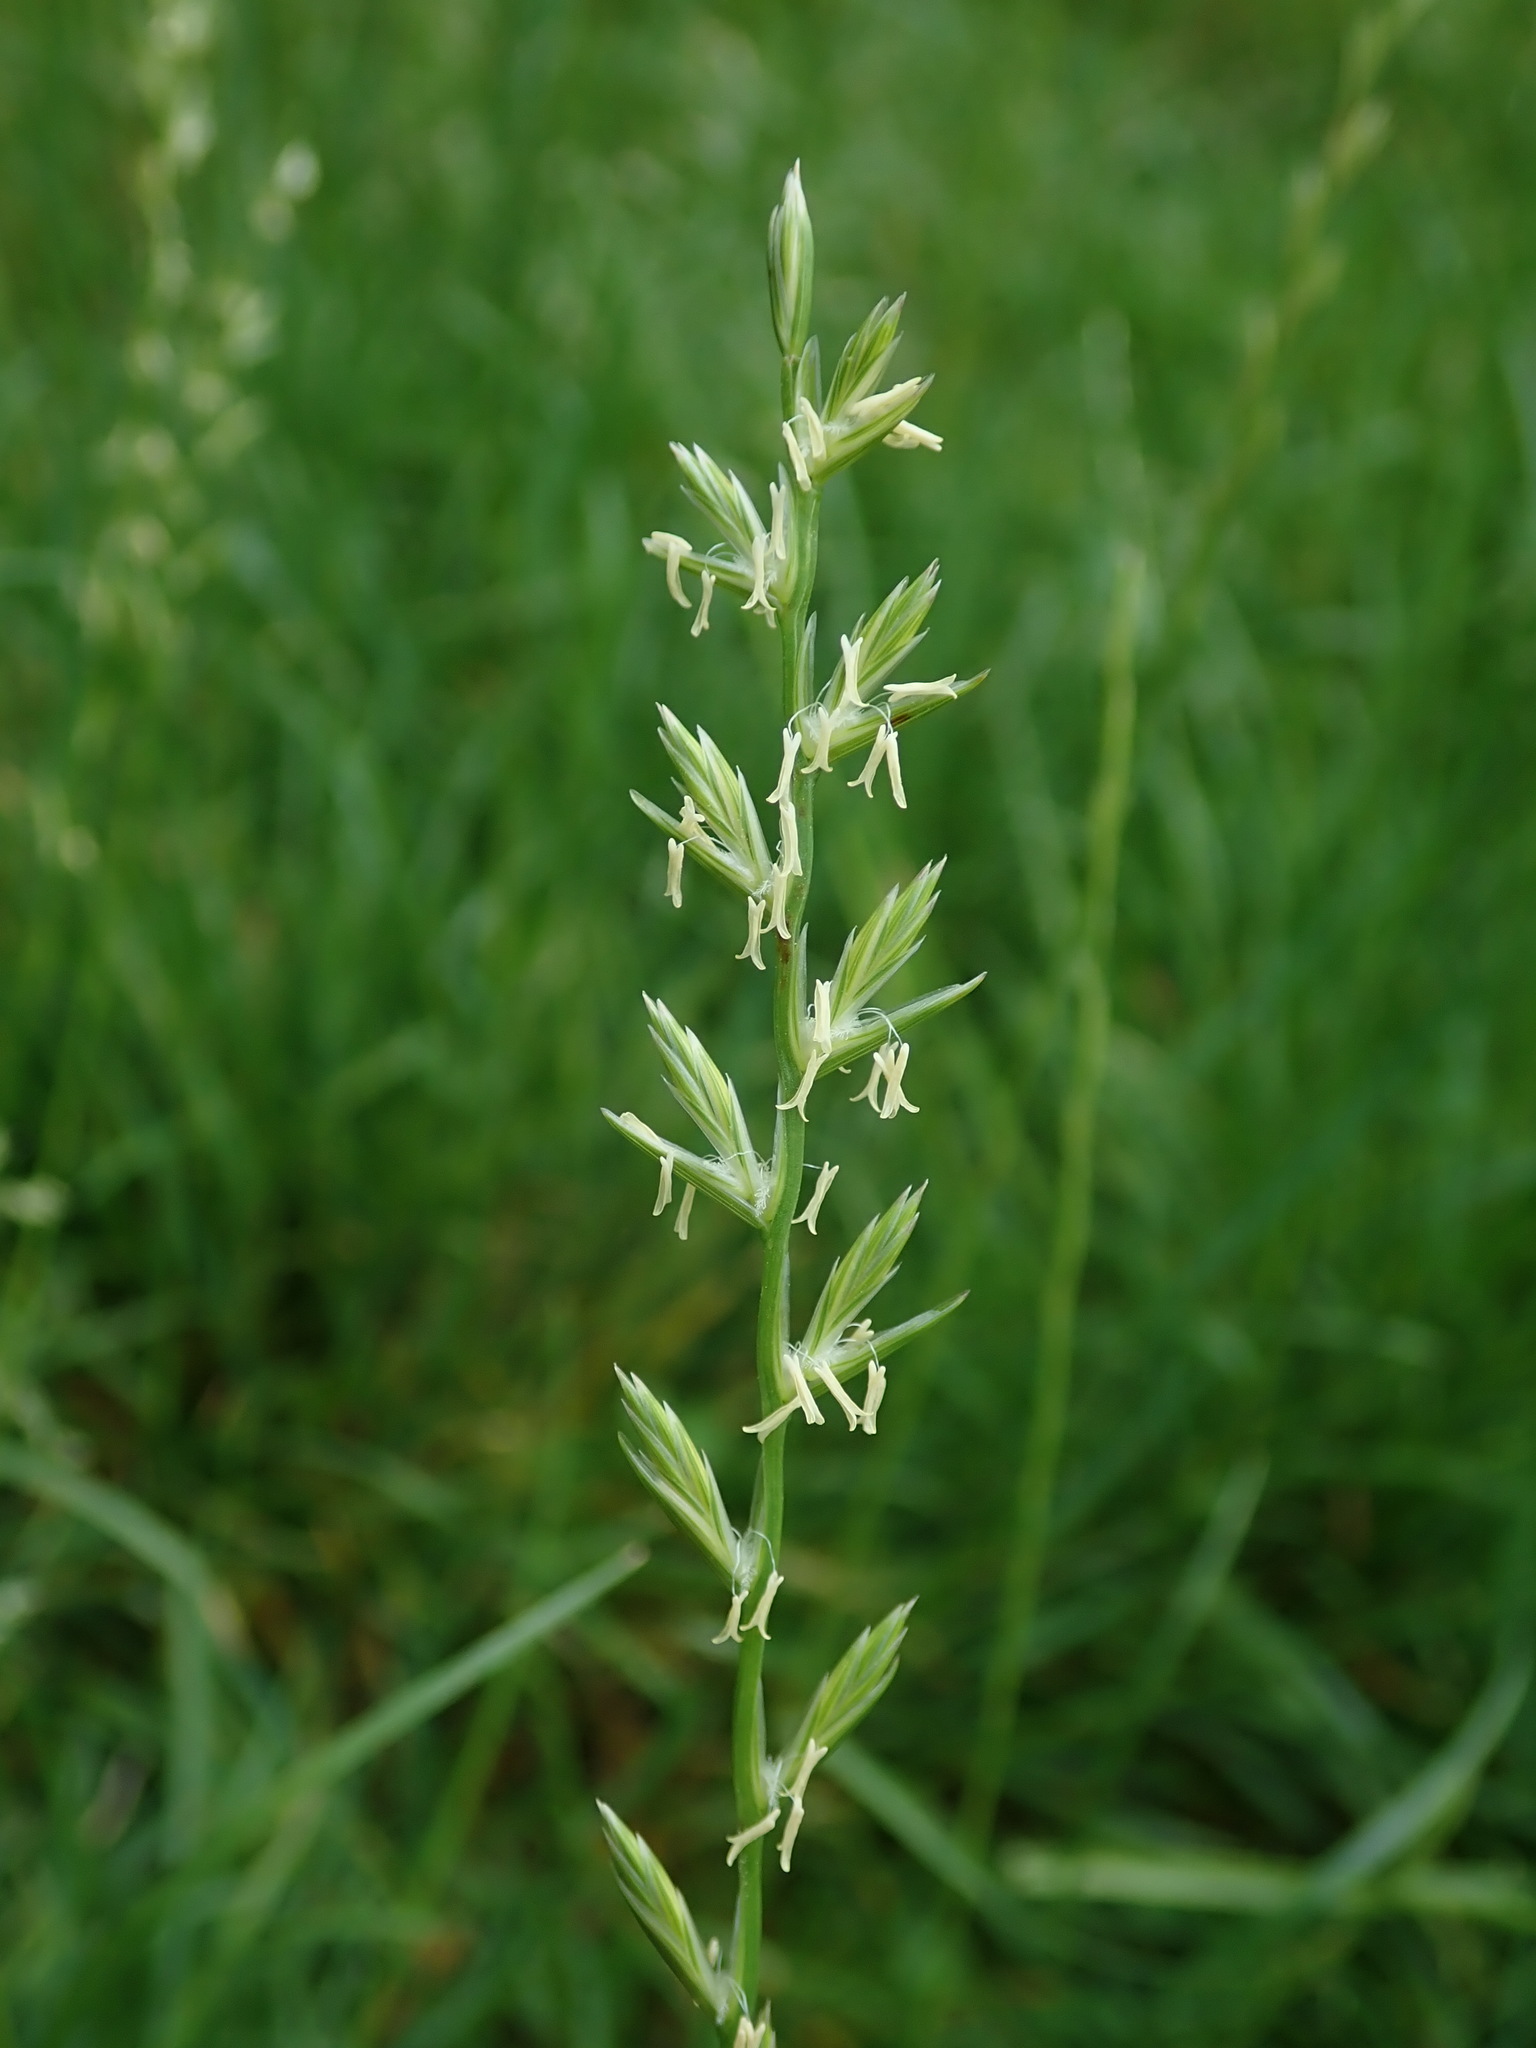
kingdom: Plantae
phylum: Tracheophyta
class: Liliopsida
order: Poales
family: Poaceae
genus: Lolium
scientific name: Lolium perenne
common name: Perennial ryegrass
